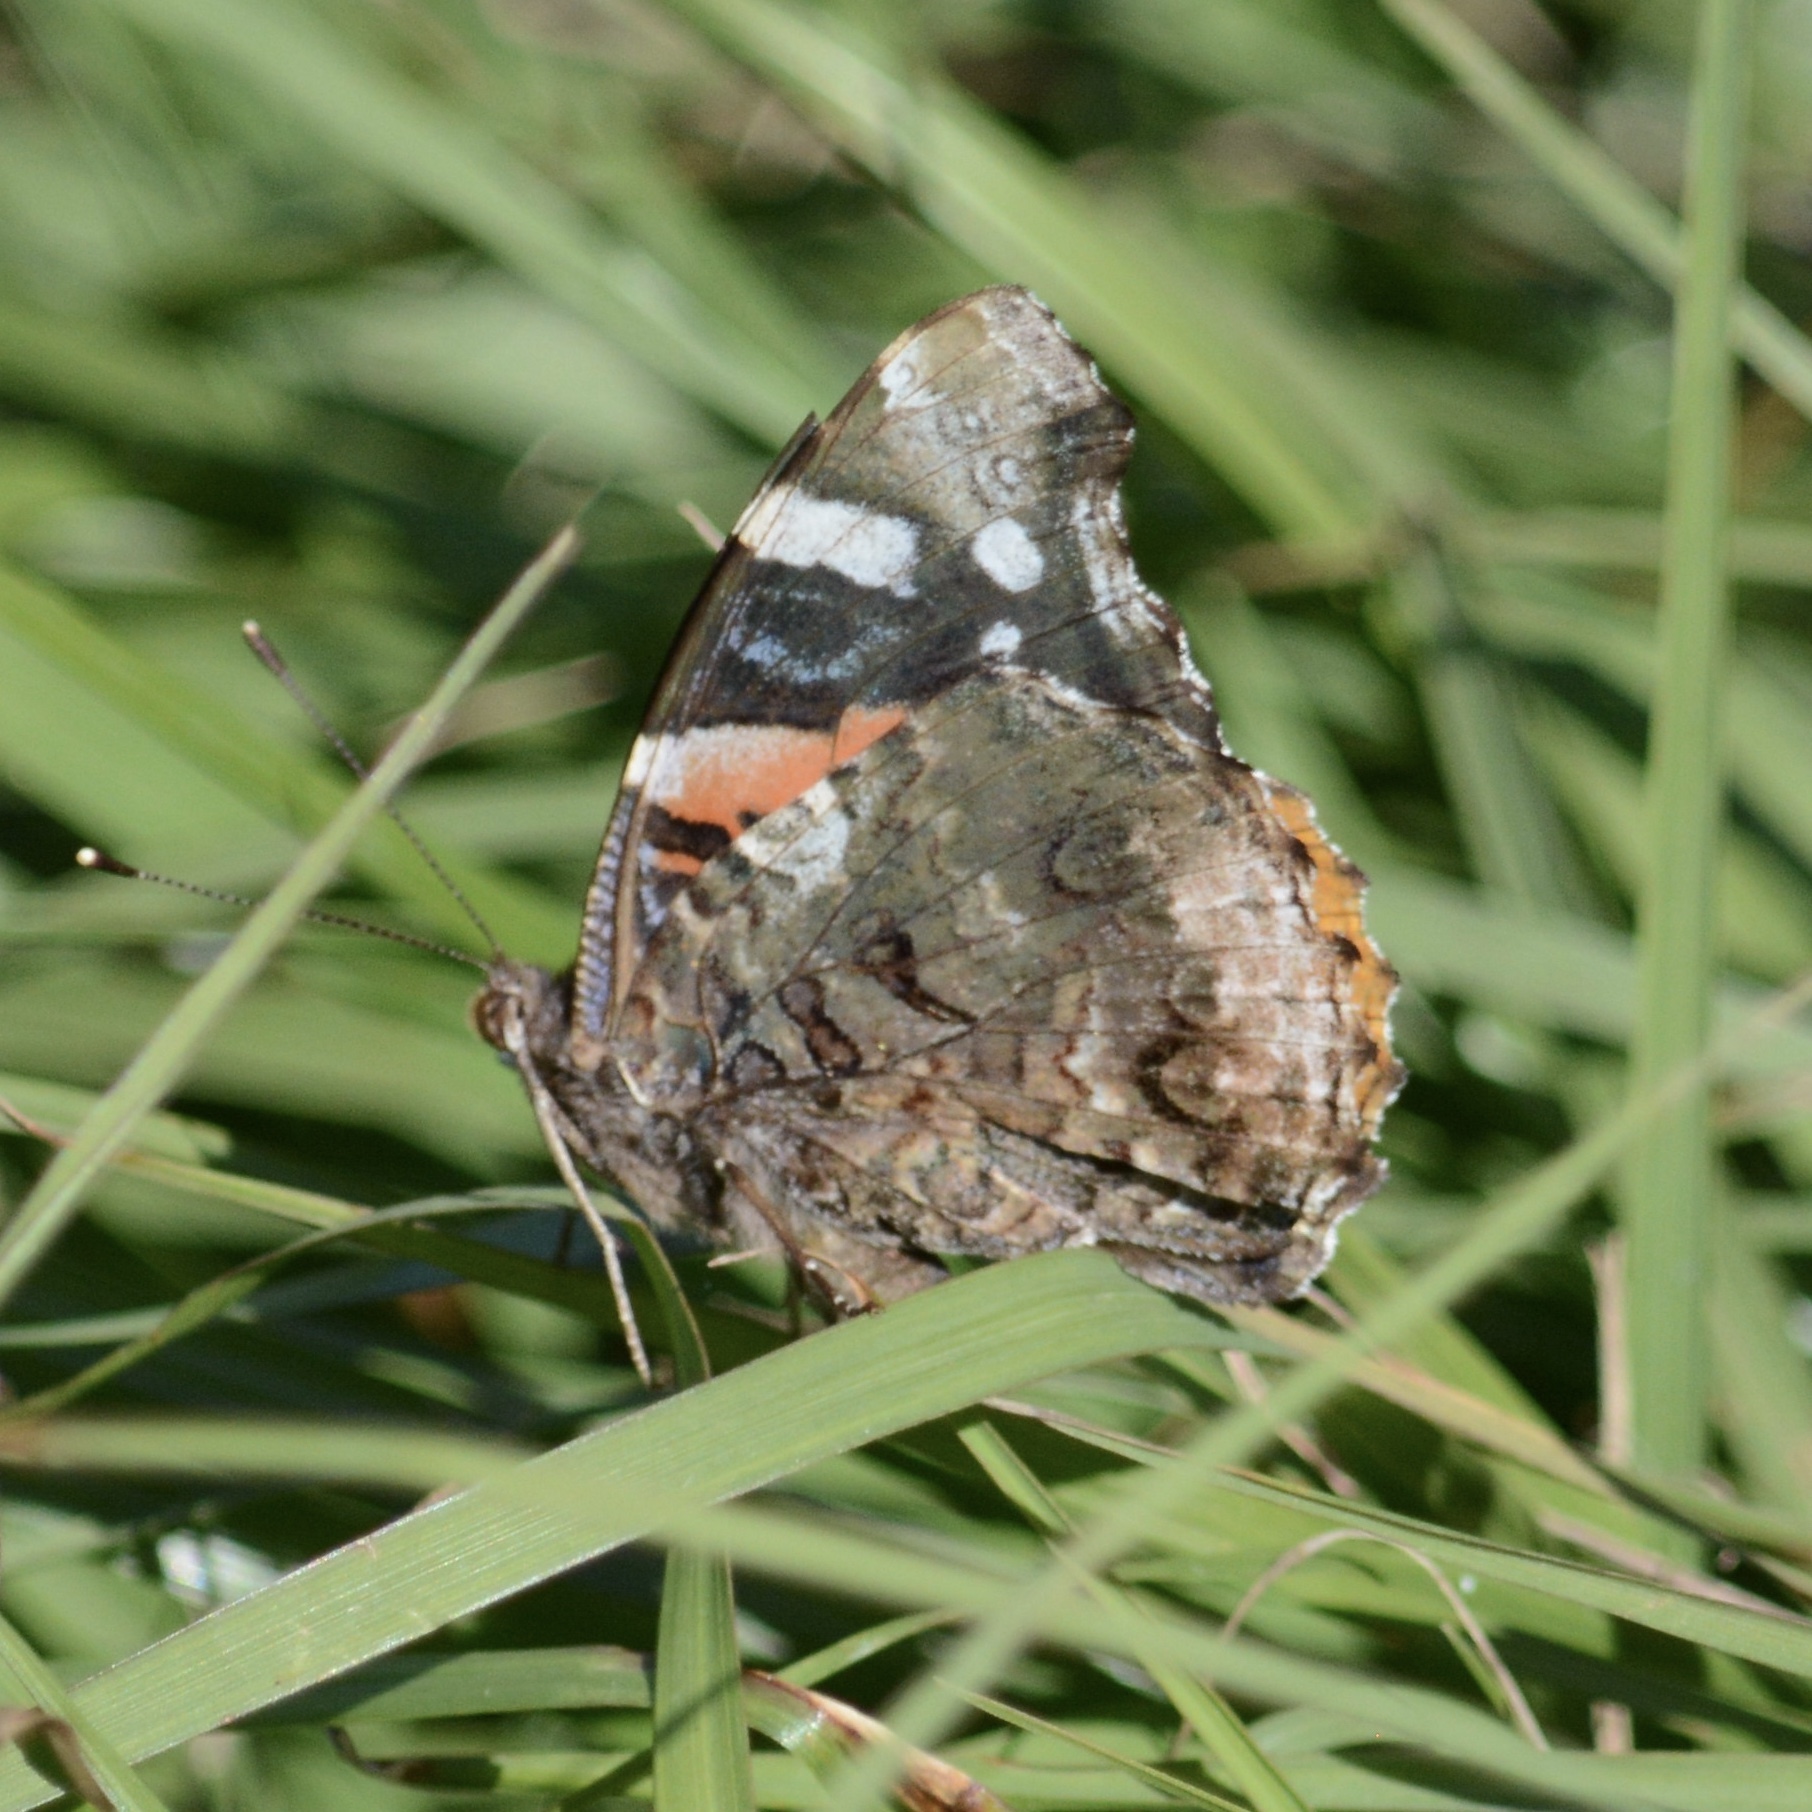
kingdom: Animalia
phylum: Arthropoda
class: Insecta
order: Lepidoptera
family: Nymphalidae
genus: Vanessa
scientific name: Vanessa atalanta
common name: Red admiral
